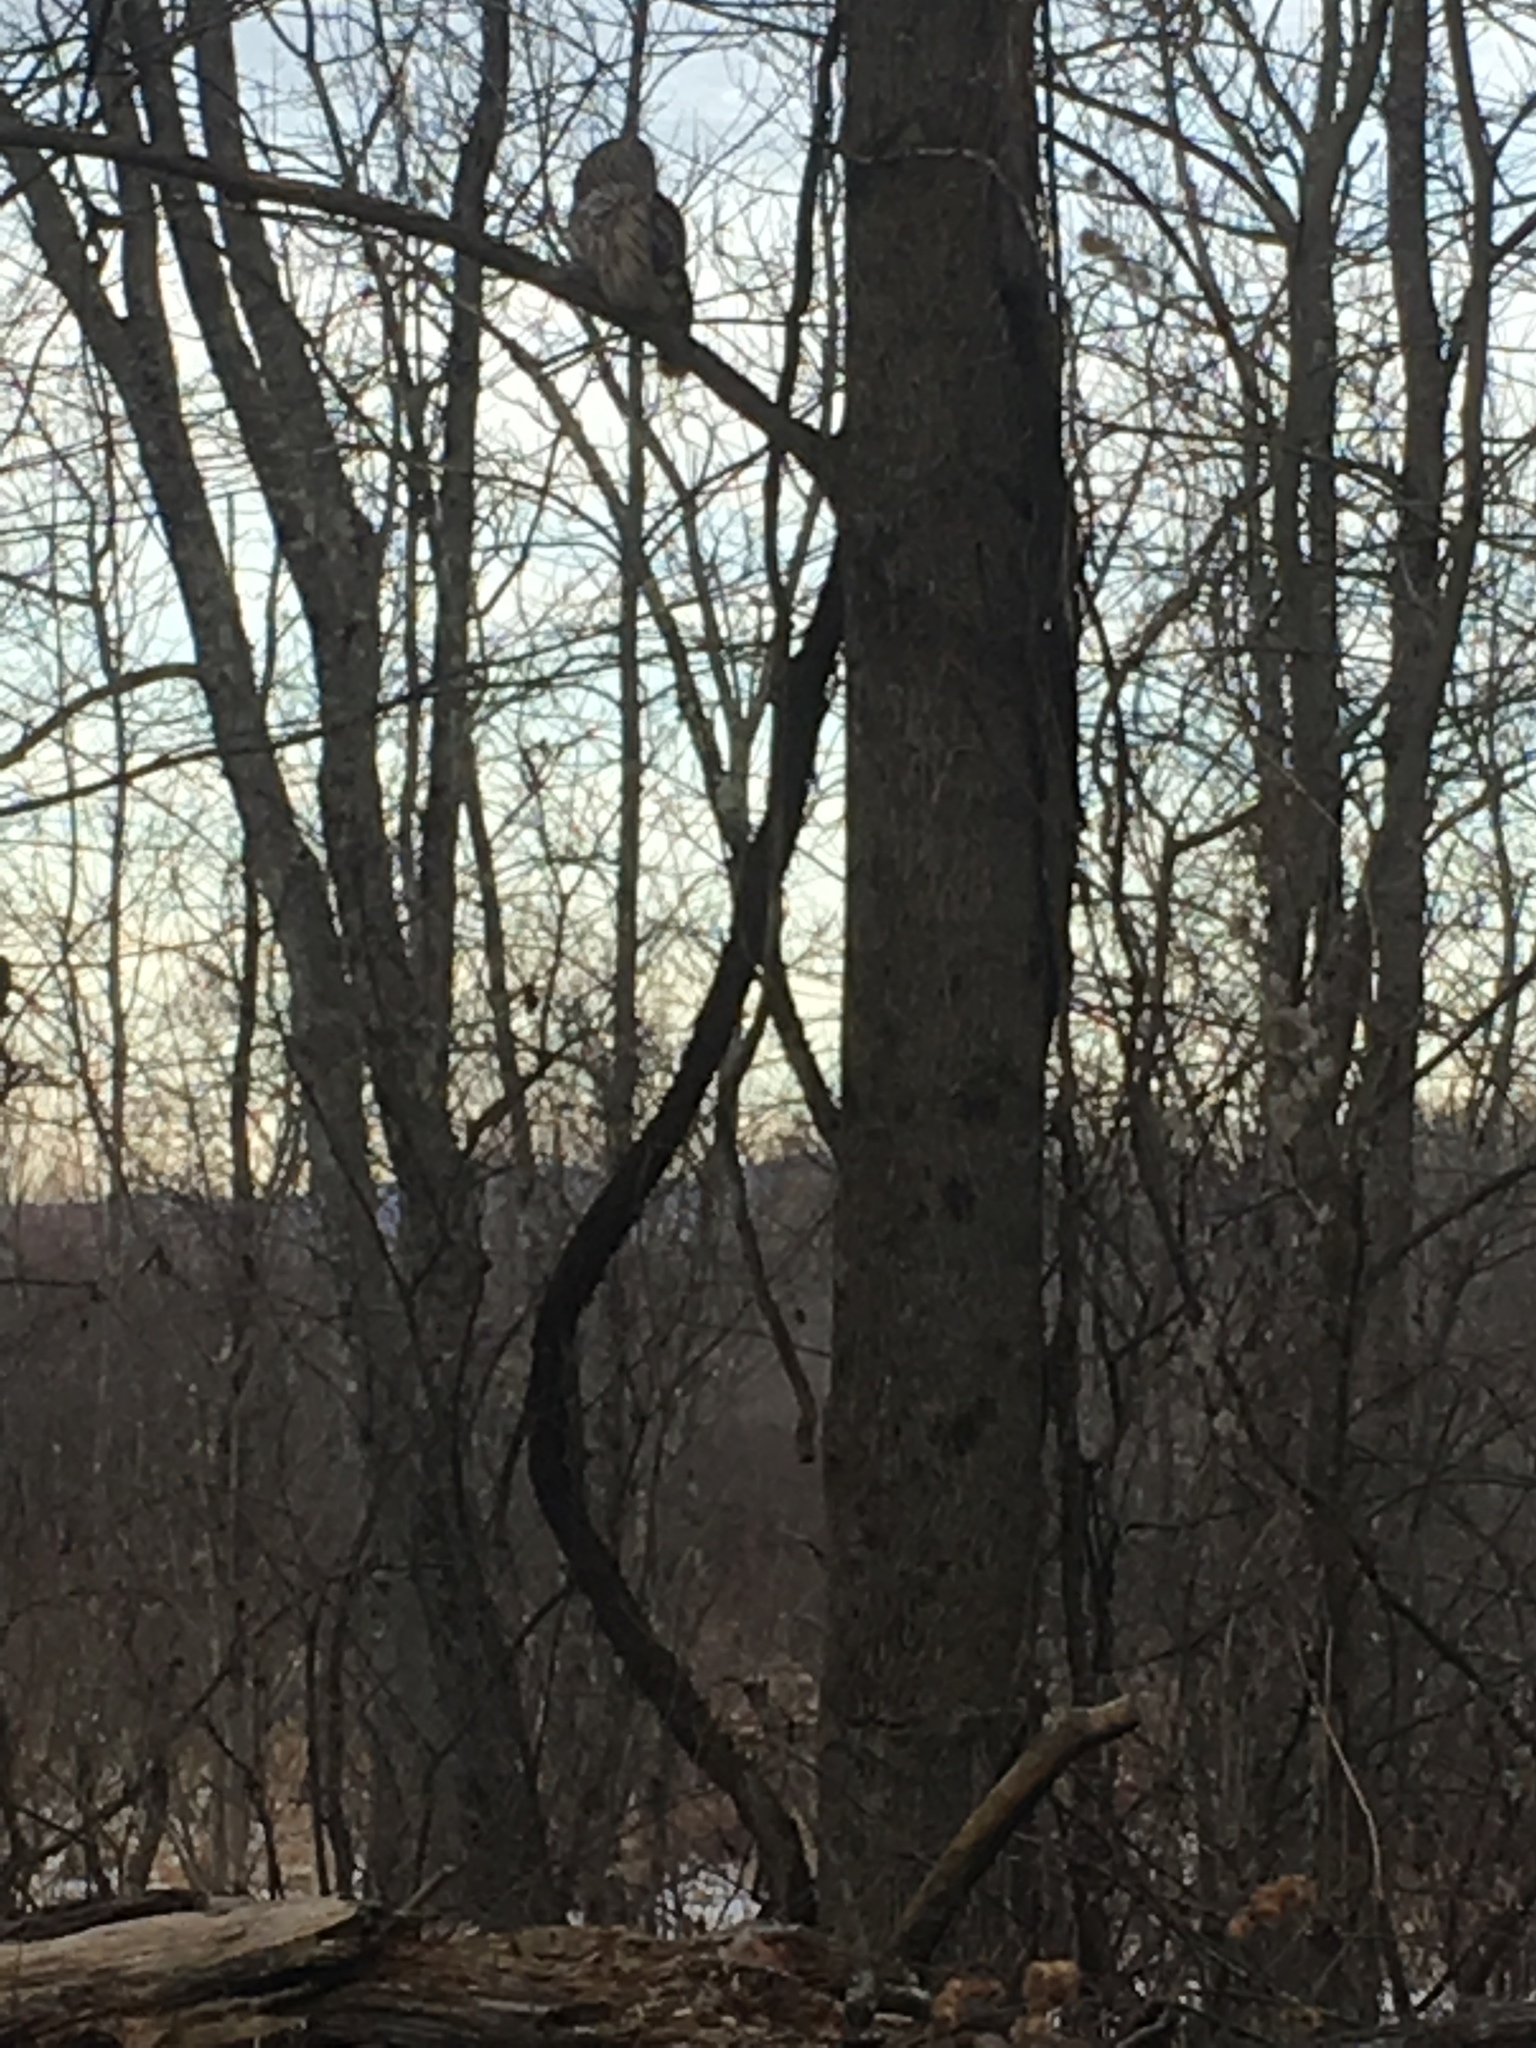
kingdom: Animalia
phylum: Chordata
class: Aves
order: Strigiformes
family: Strigidae
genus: Strix
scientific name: Strix varia
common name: Barred owl
